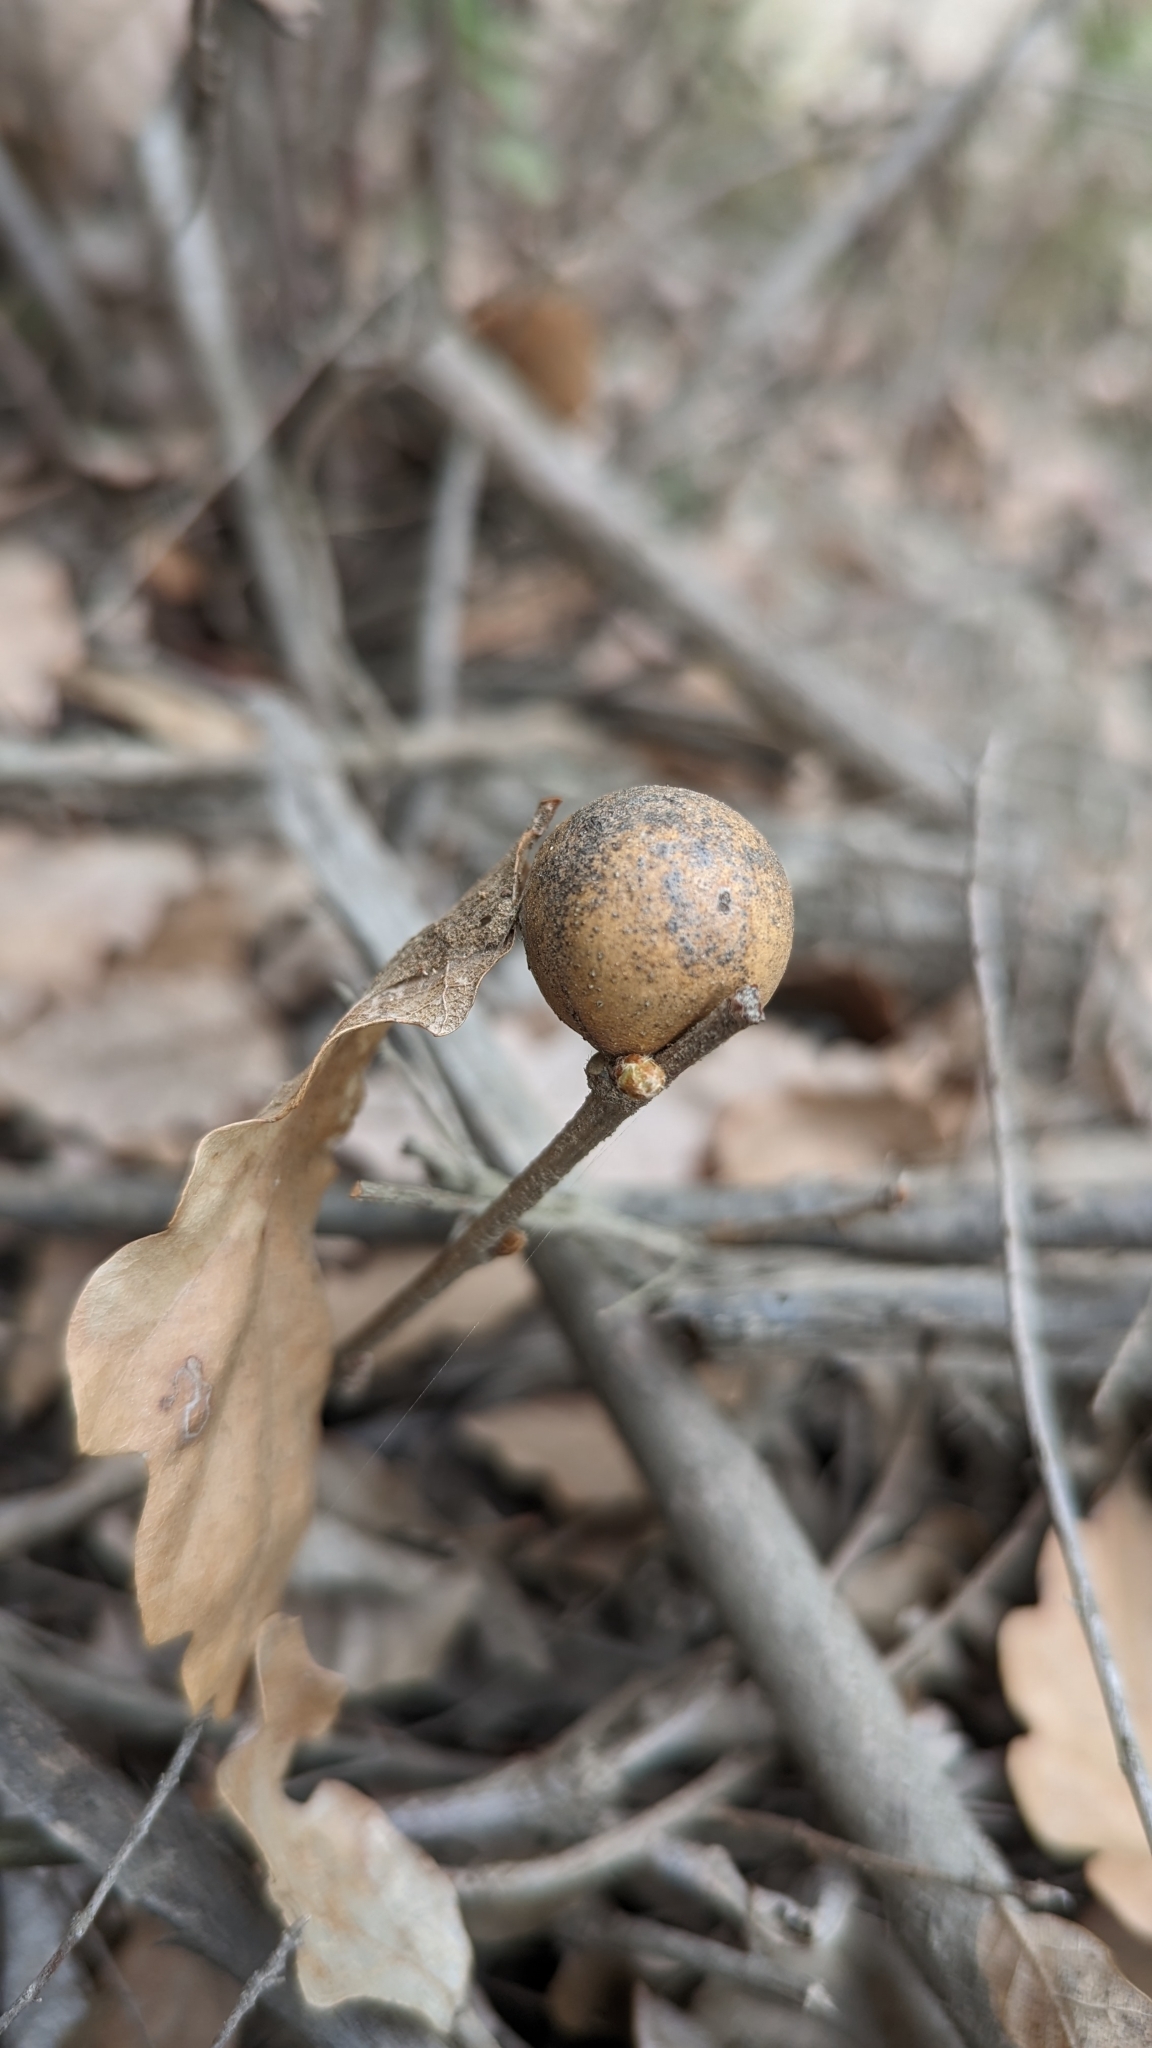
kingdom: Animalia
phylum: Arthropoda
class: Insecta
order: Hymenoptera
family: Cynipidae
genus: Andricus
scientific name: Andricus kollari
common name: Marble gall
